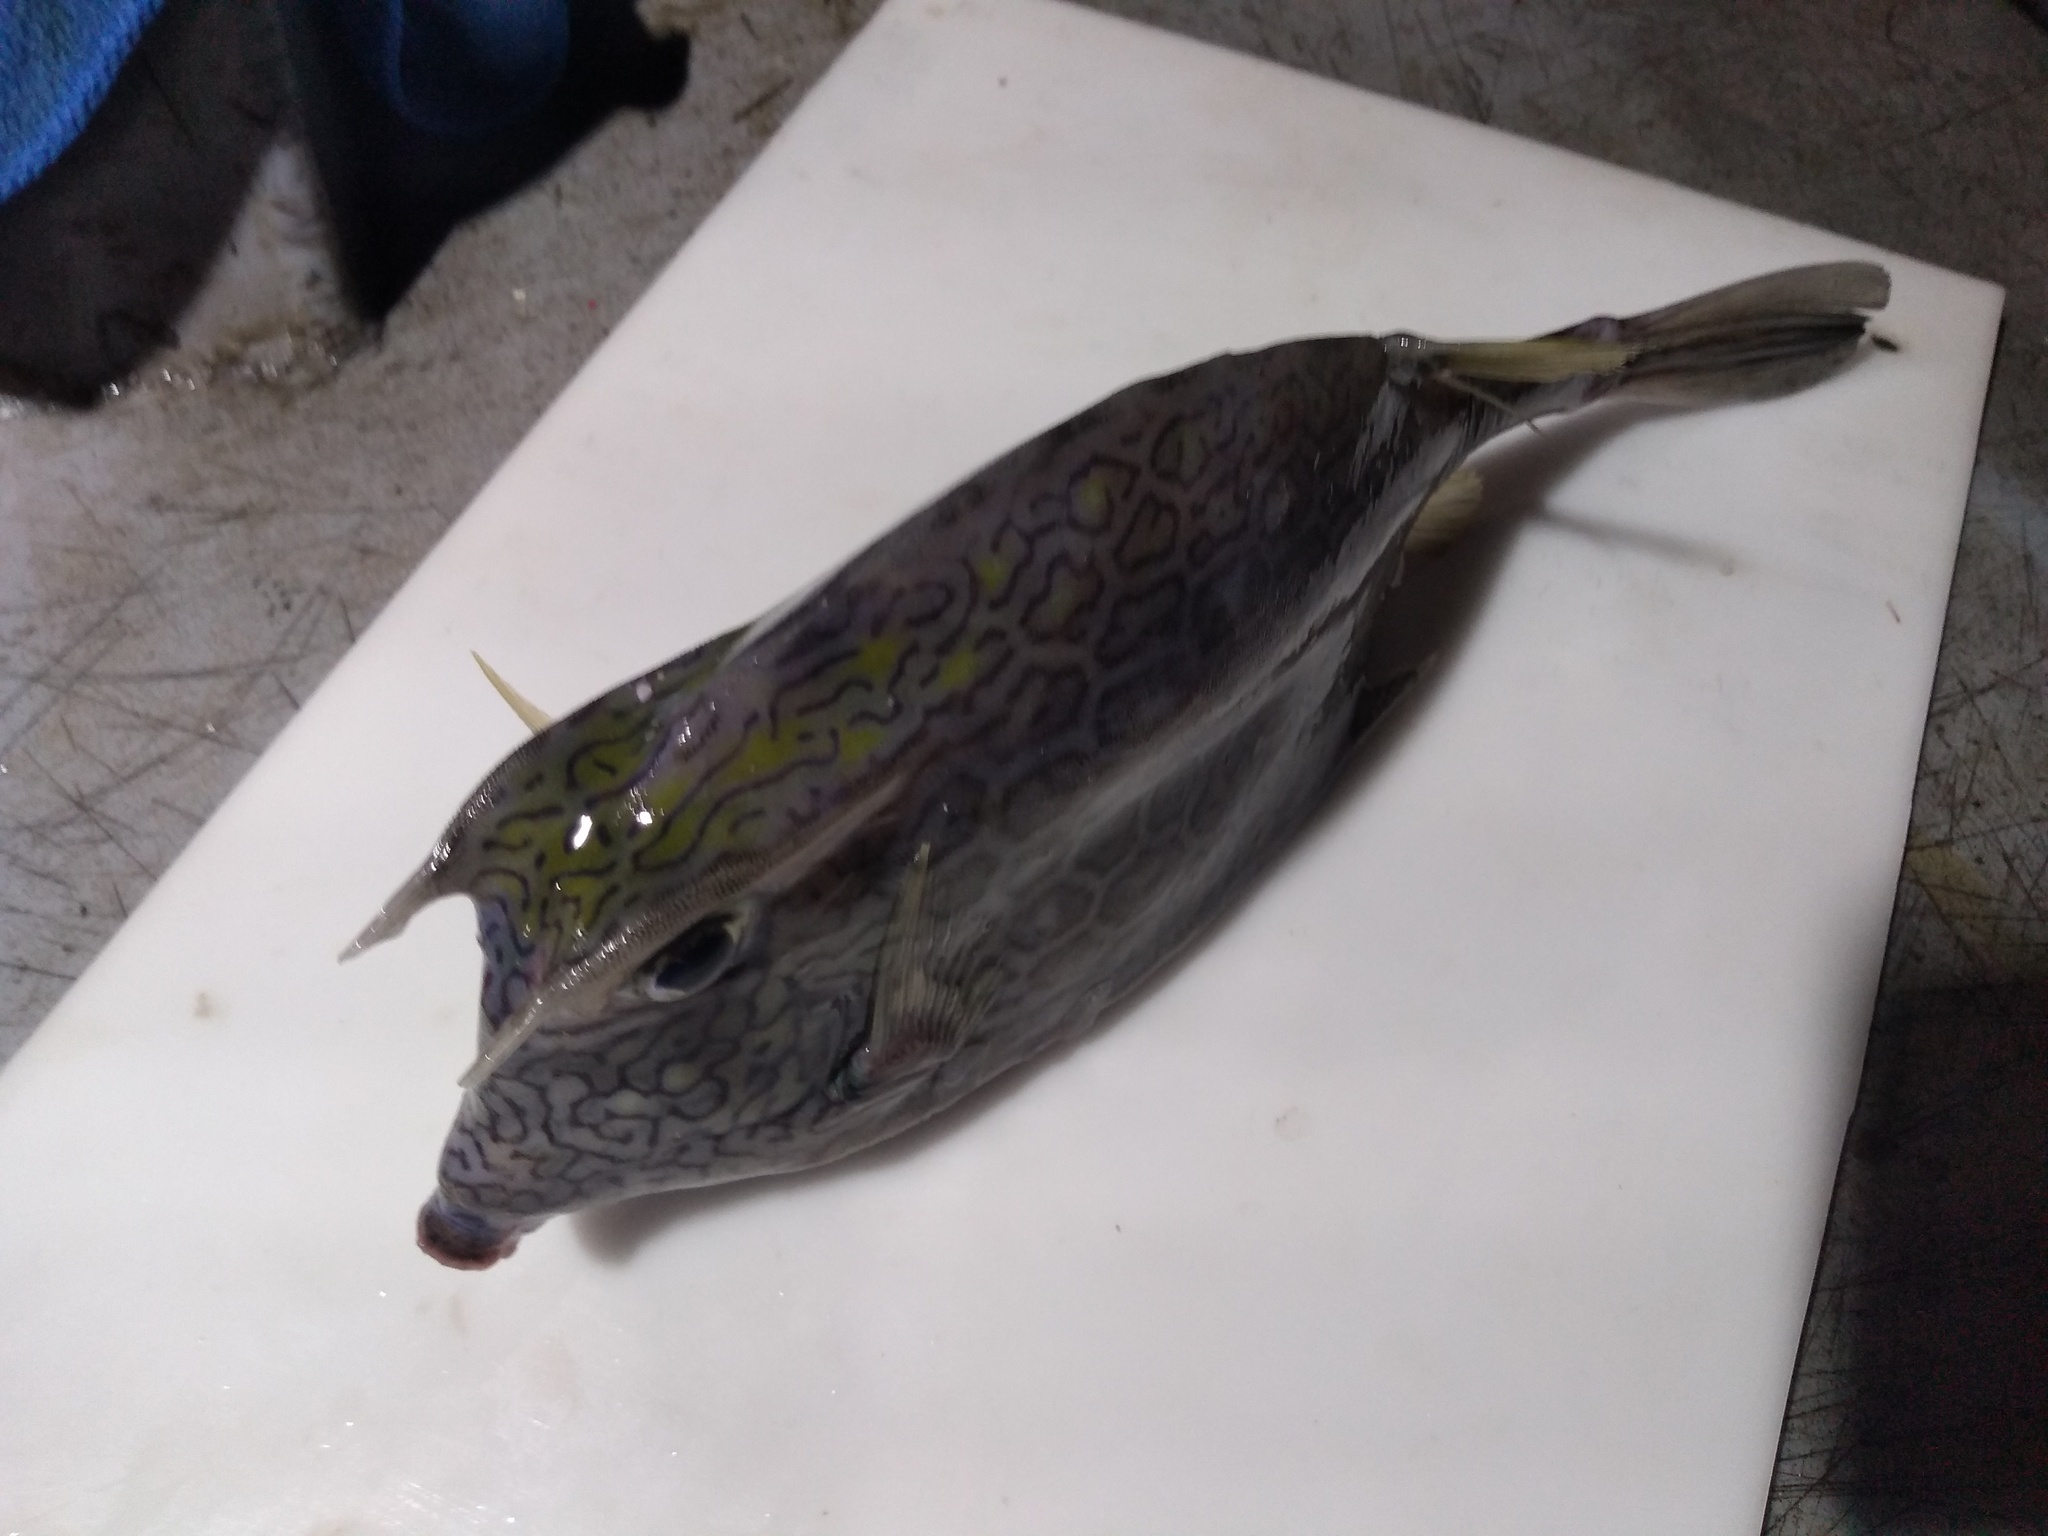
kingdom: Animalia
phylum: Chordata
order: Tetraodontiformes
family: Ostraciidae
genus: Acanthostracion
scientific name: Acanthostracion polygonius
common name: Honeycomb cowfish
